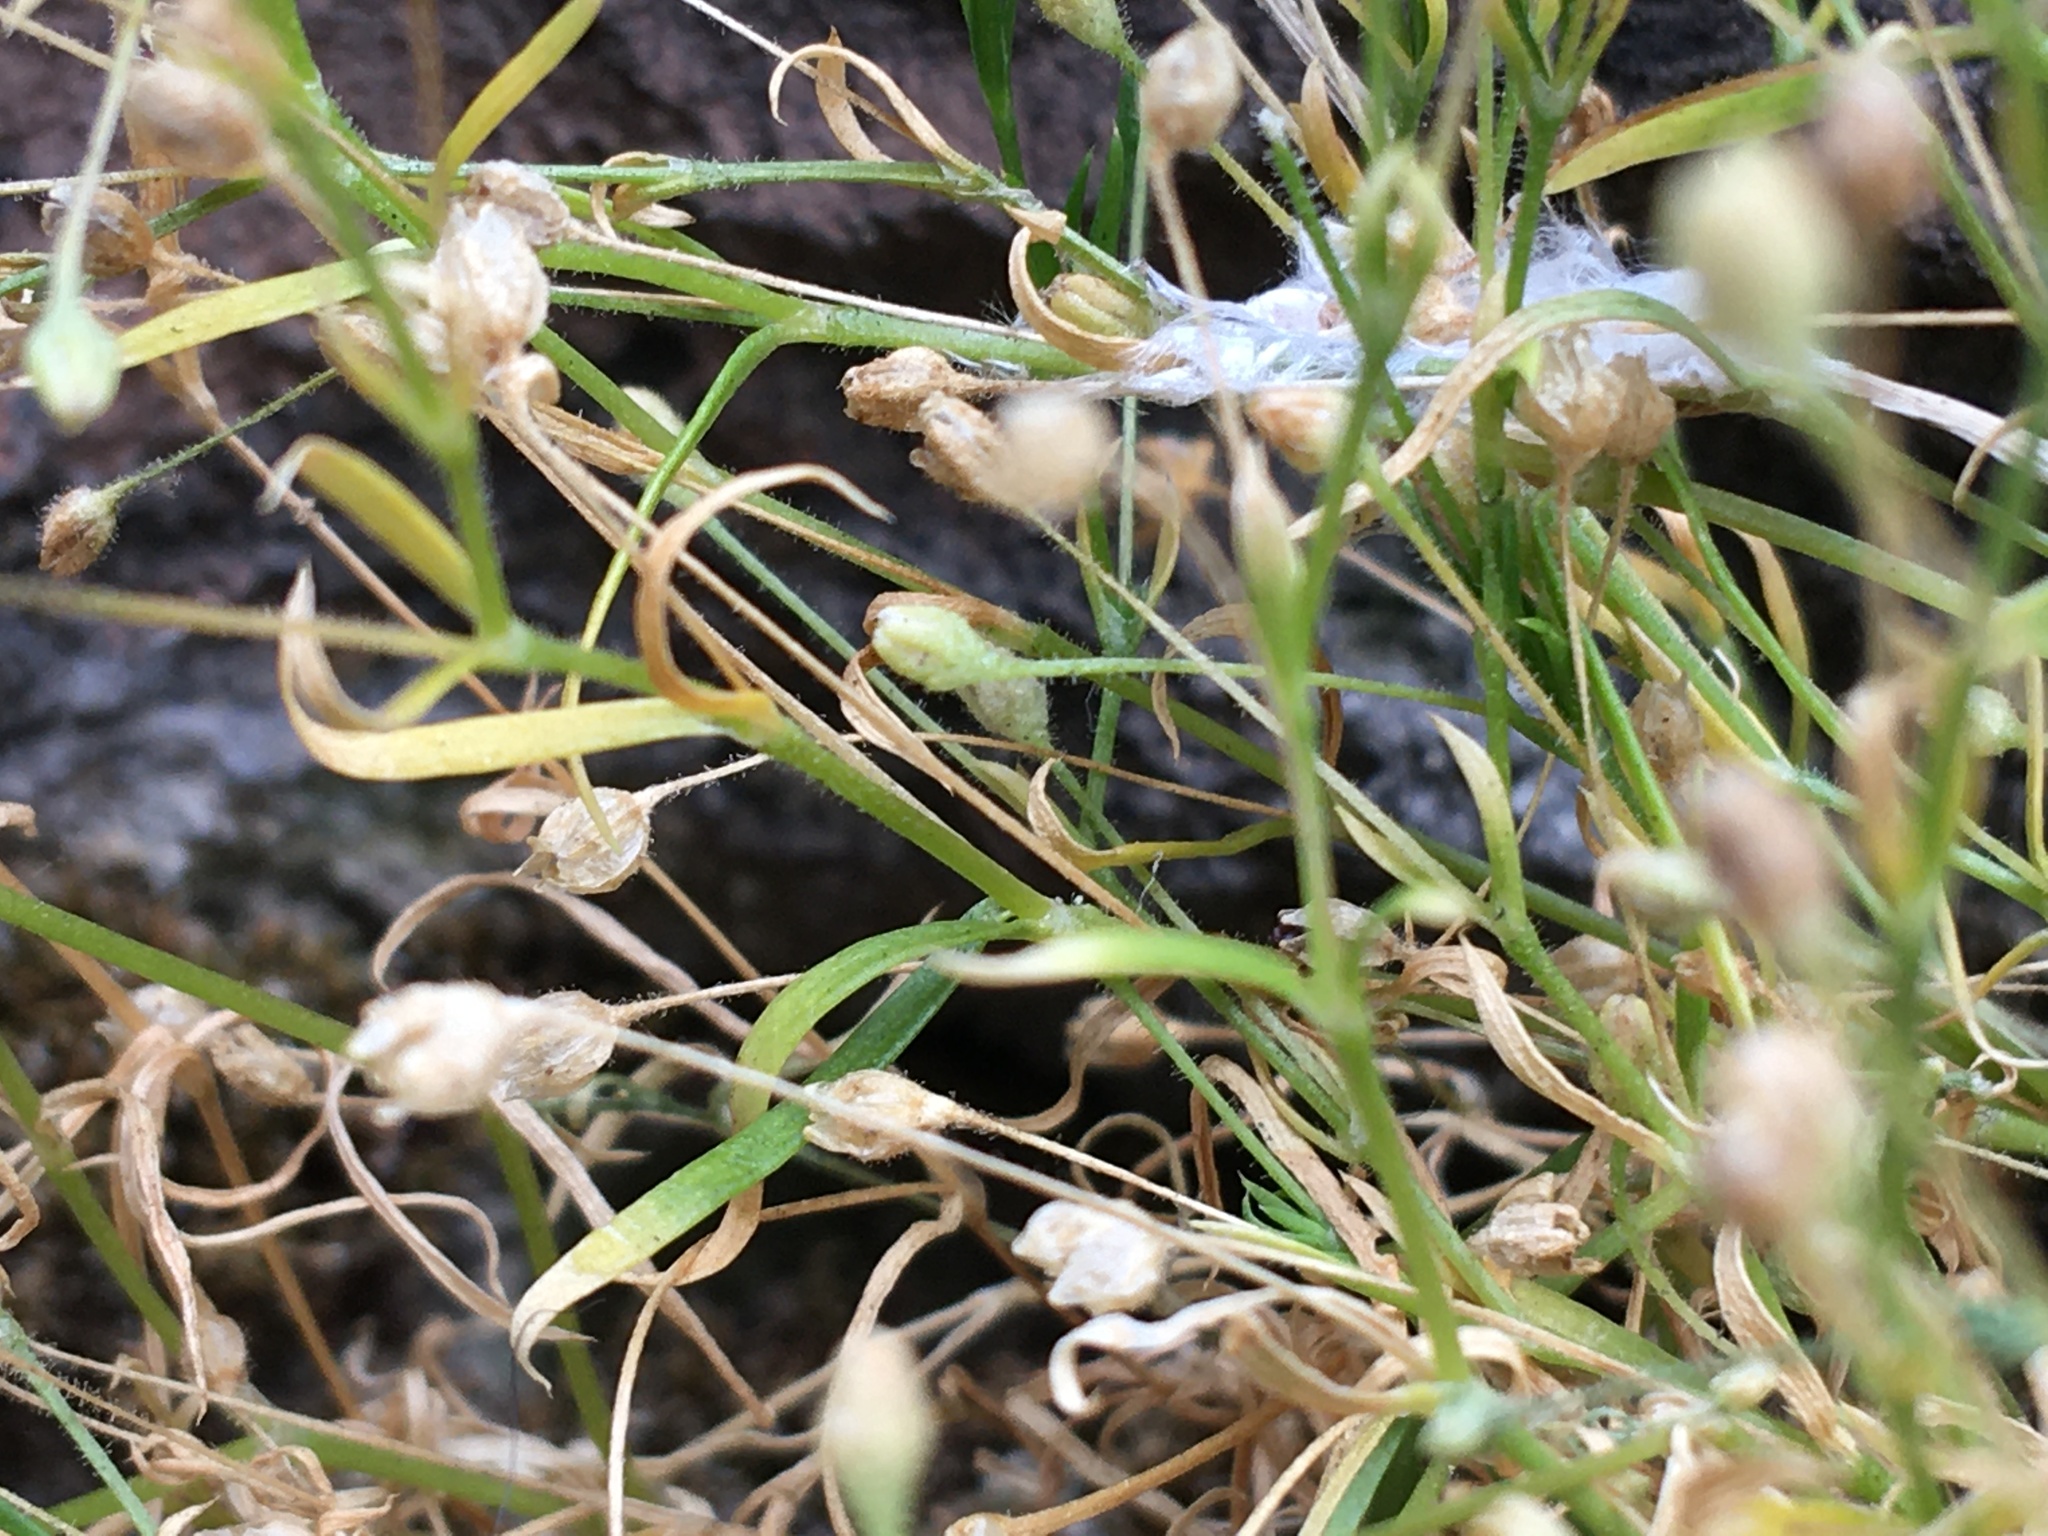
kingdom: Plantae
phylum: Tracheophyta
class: Magnoliopsida
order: Caryophyllales
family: Caryophyllaceae
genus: Sagina
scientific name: Sagina japonica
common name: Japanese pearlwort
